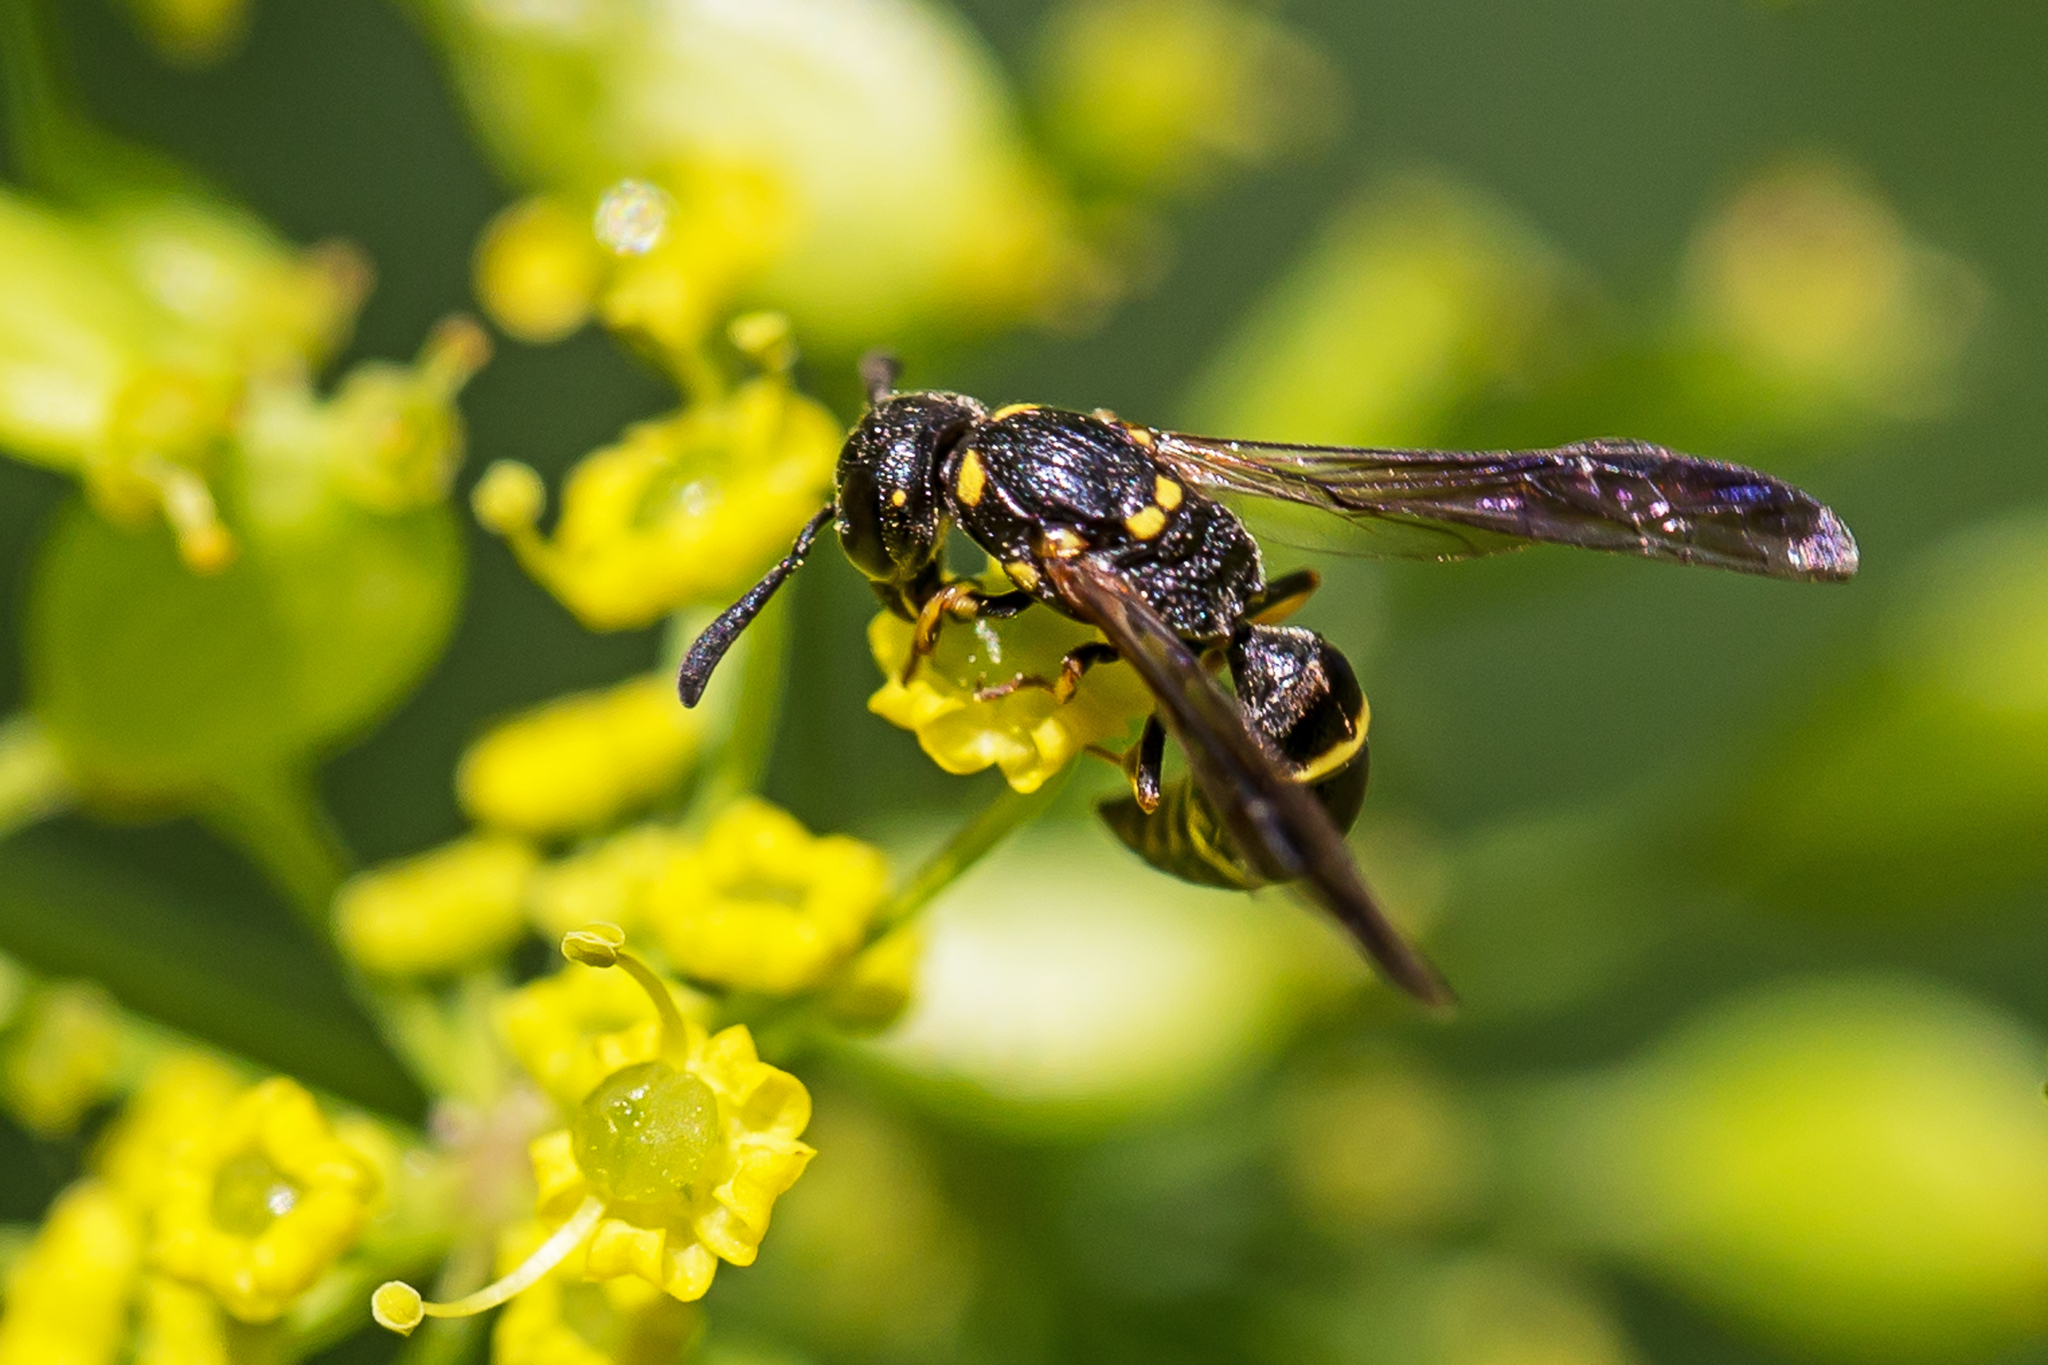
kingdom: Animalia
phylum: Arthropoda
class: Insecta
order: Hymenoptera
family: Eumenidae
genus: Symmorphus
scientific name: Symmorphus cristatus
